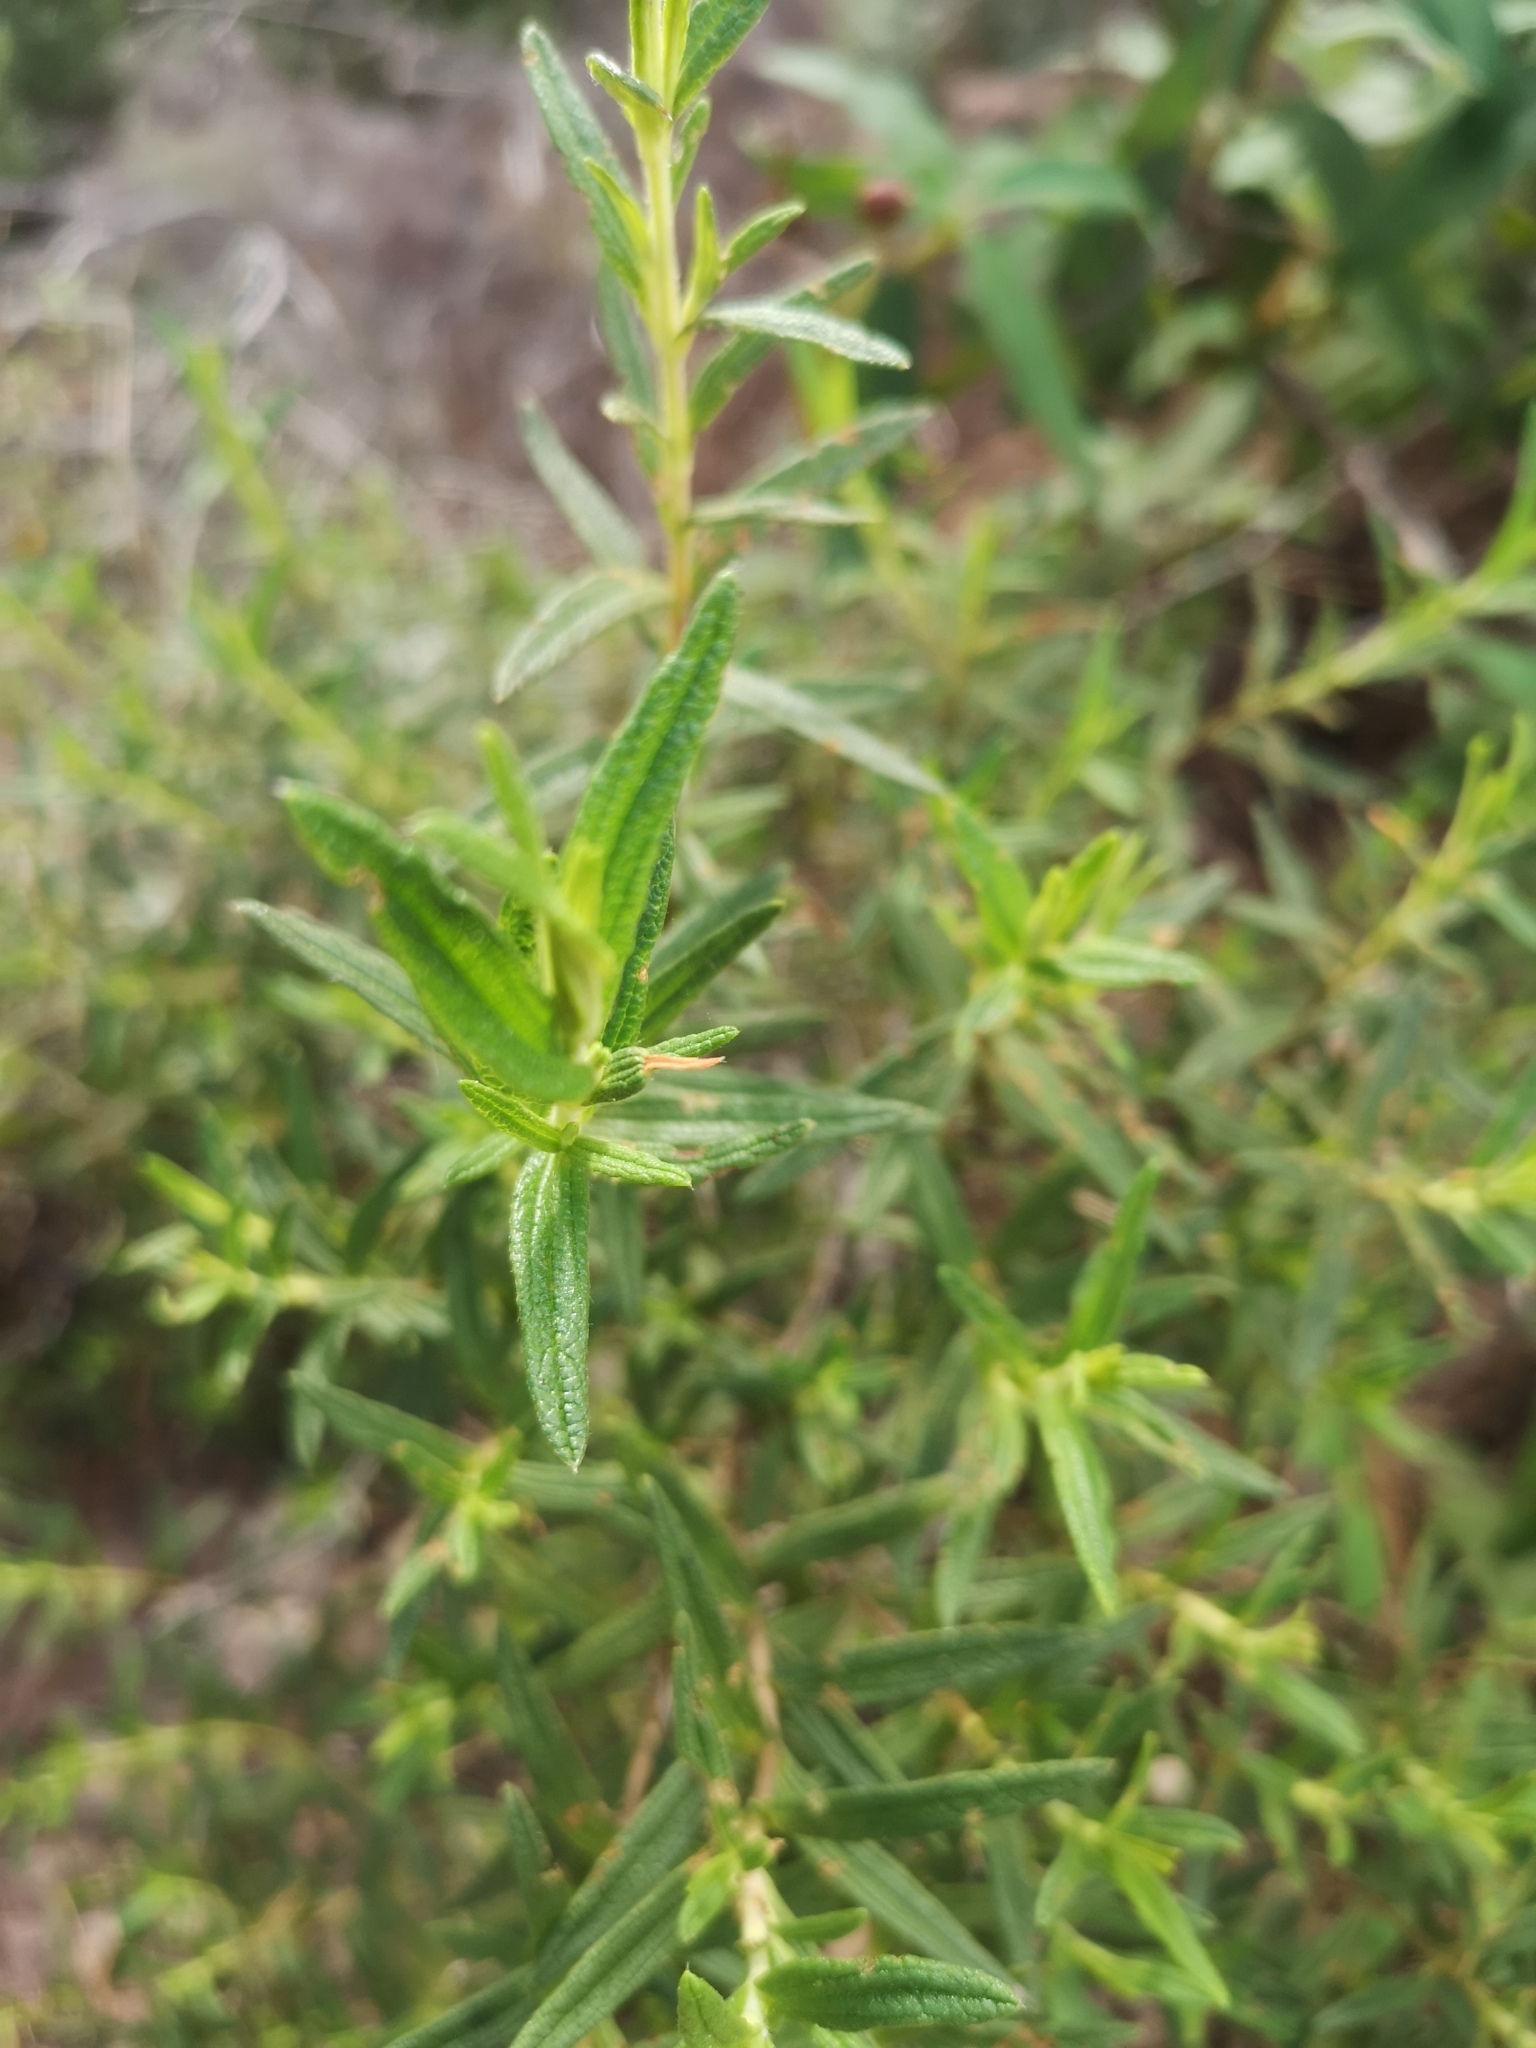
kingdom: Plantae
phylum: Tracheophyta
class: Magnoliopsida
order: Malvales
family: Cistaceae
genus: Cistus
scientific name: Cistus monspeliensis
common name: Montpelier cistus
